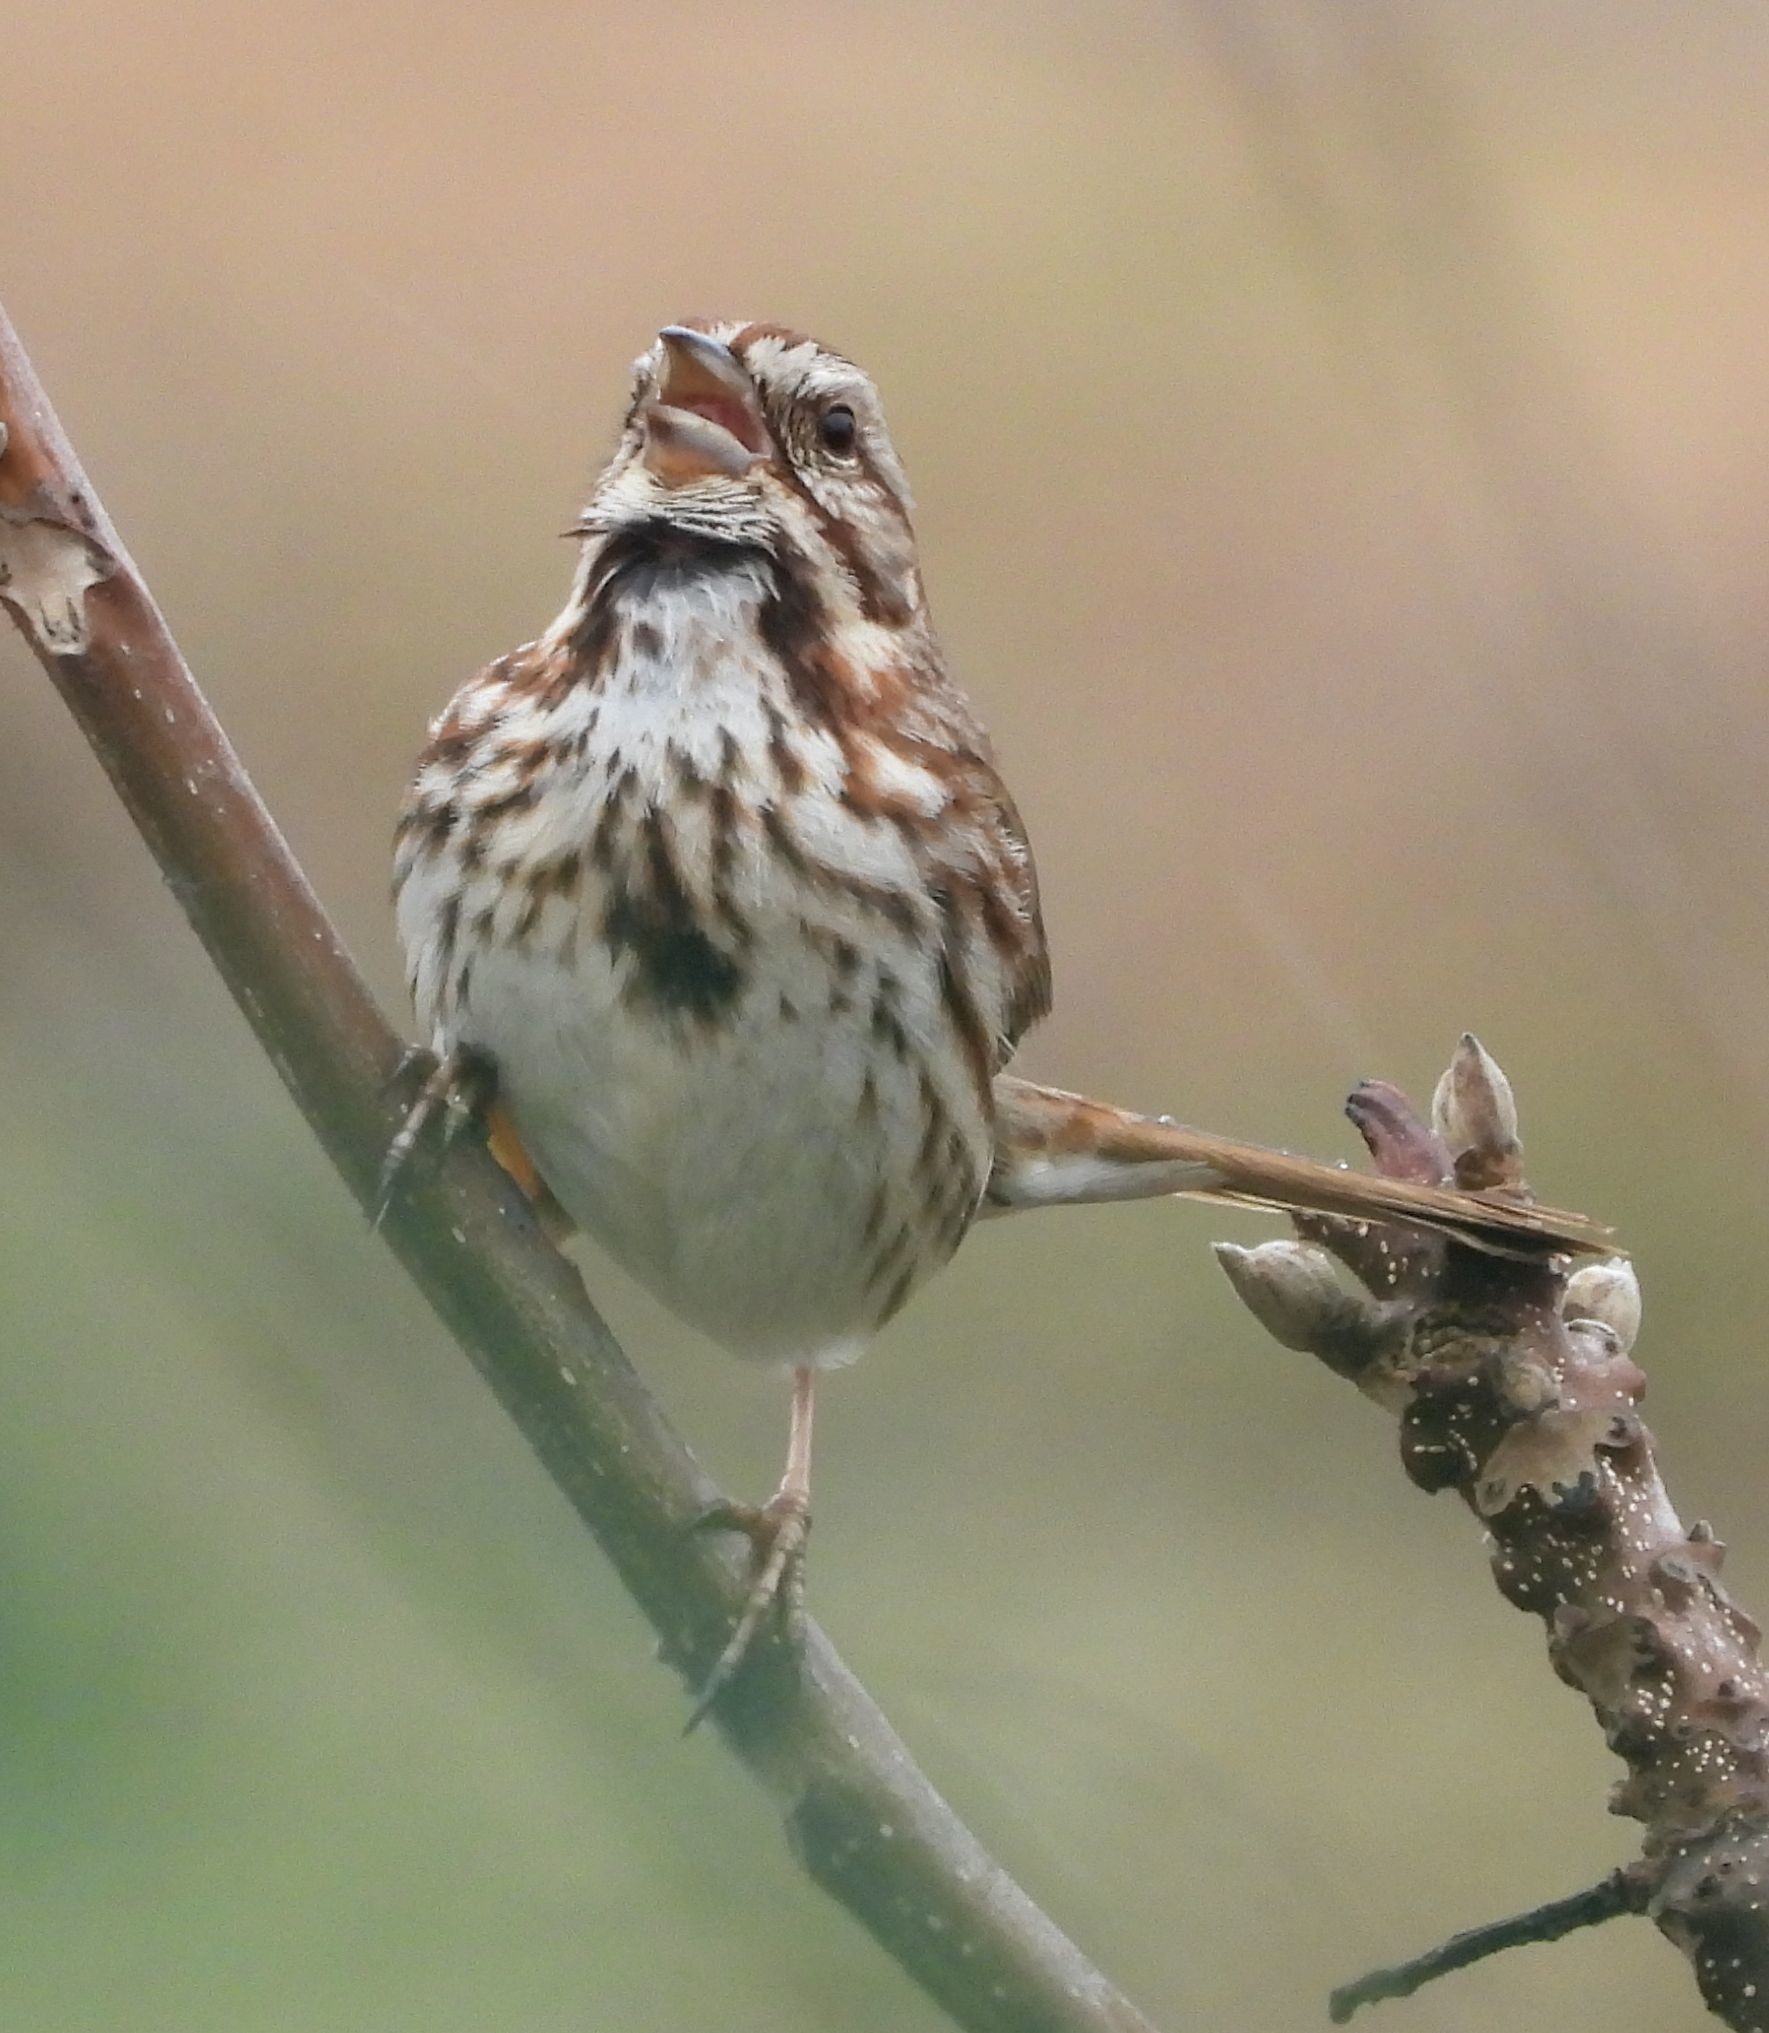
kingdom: Animalia
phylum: Chordata
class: Aves
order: Passeriformes
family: Passerellidae
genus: Melospiza
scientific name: Melospiza melodia
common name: Song sparrow
